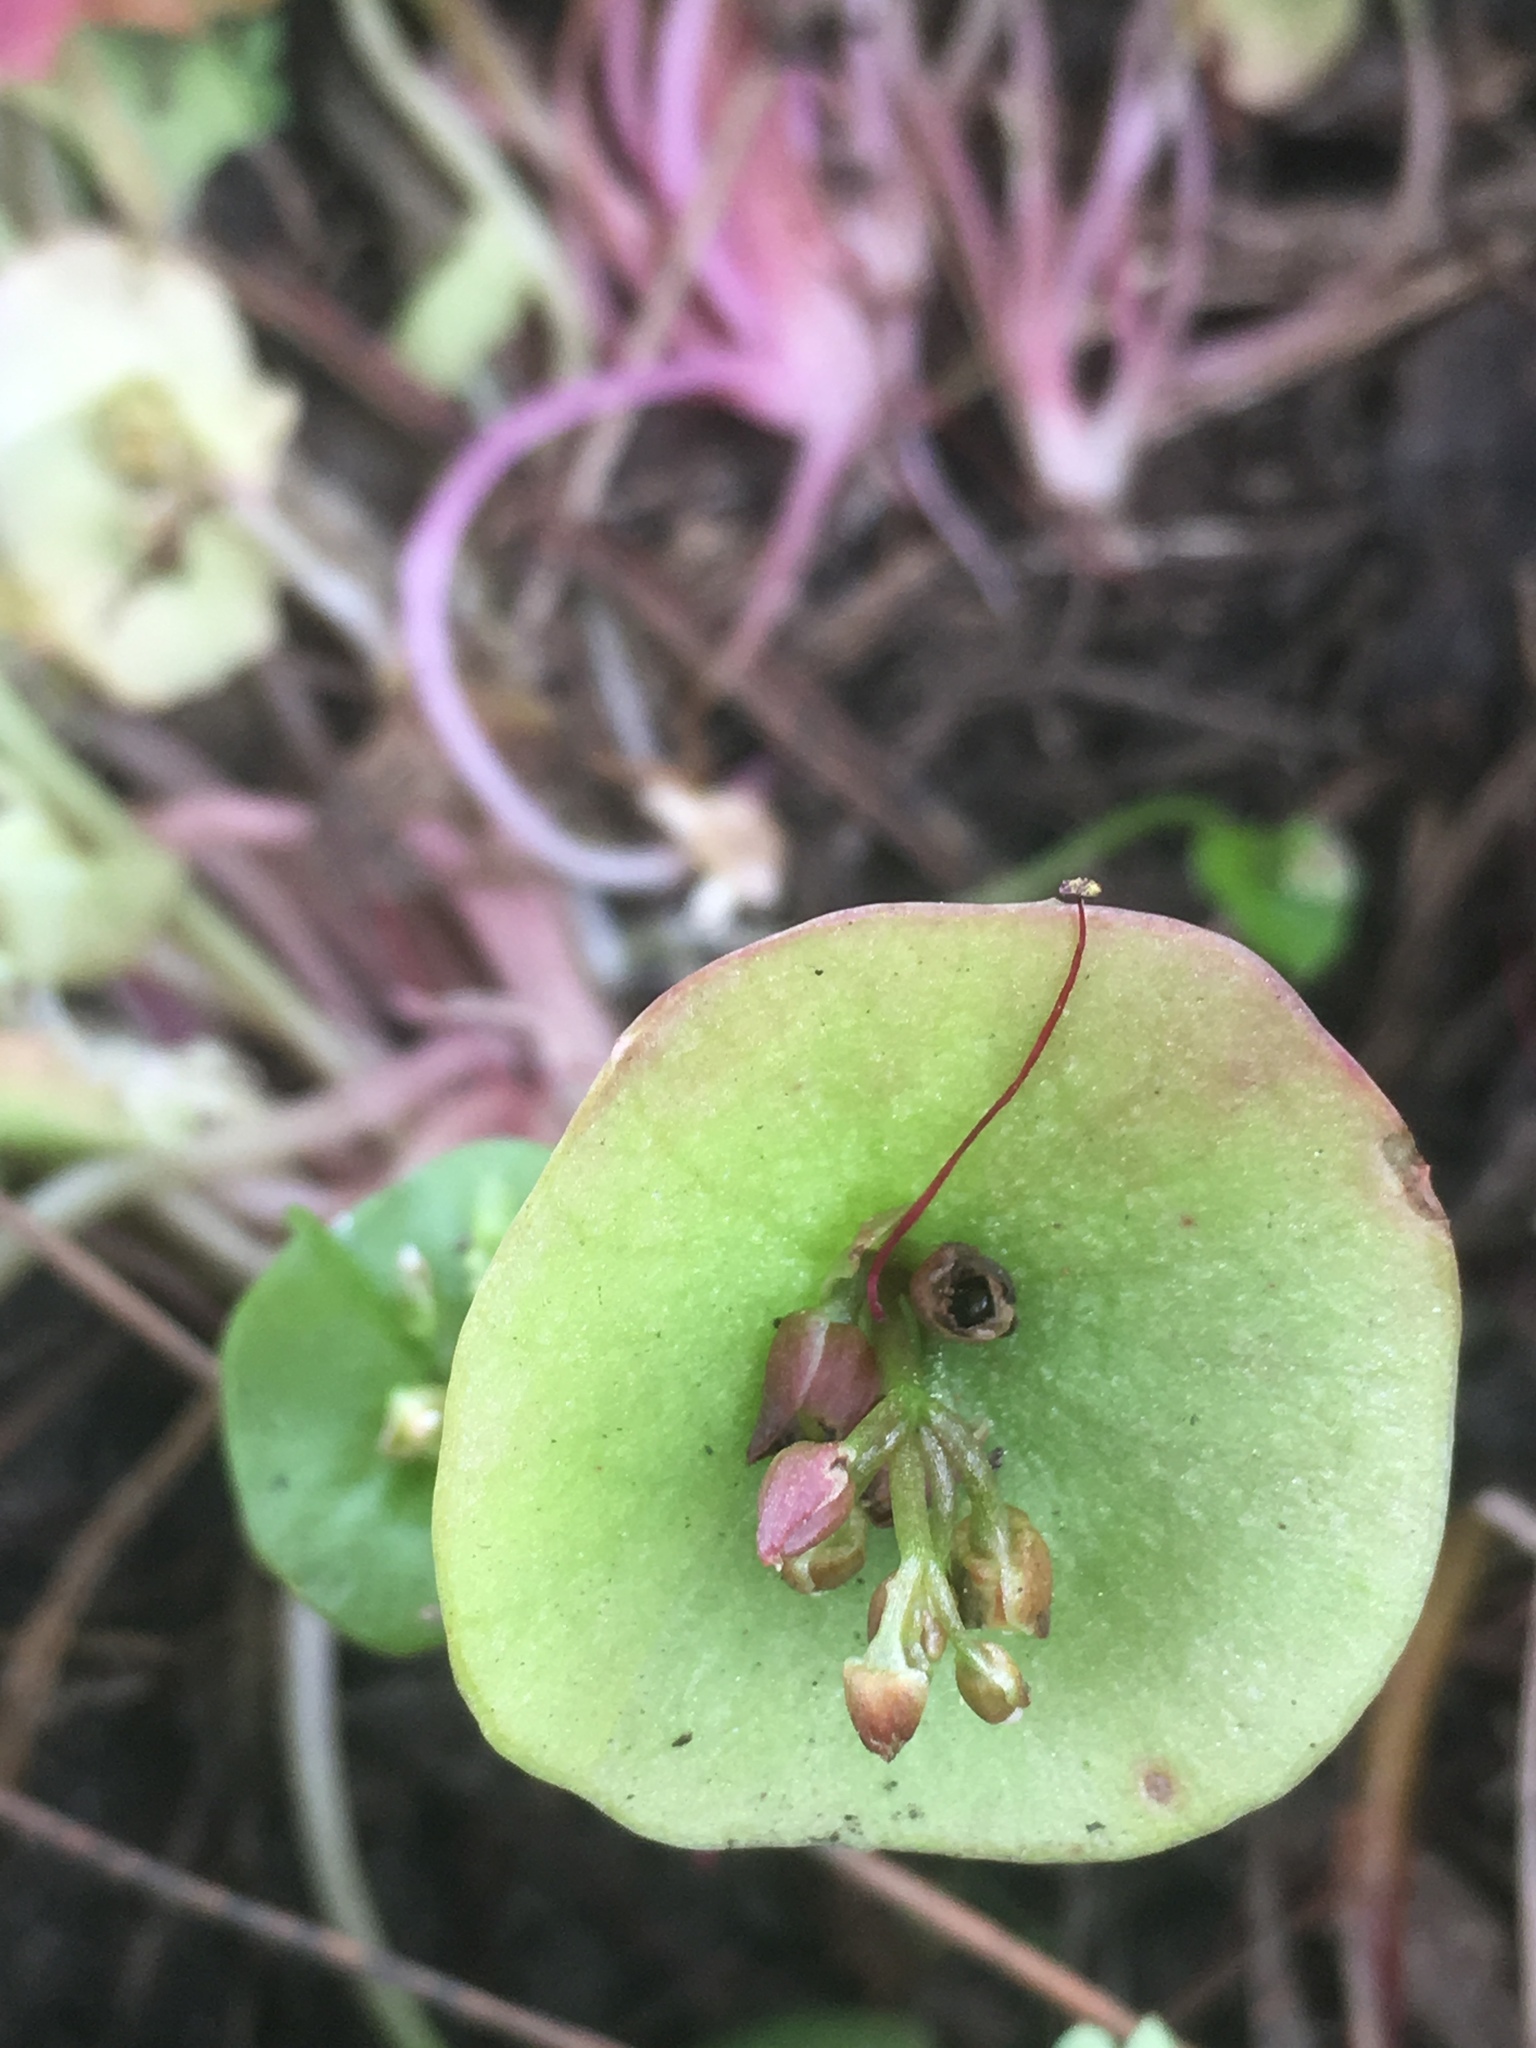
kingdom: Plantae
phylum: Tracheophyta
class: Magnoliopsida
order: Caryophyllales
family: Montiaceae
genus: Claytonia
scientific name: Claytonia perfoliata
